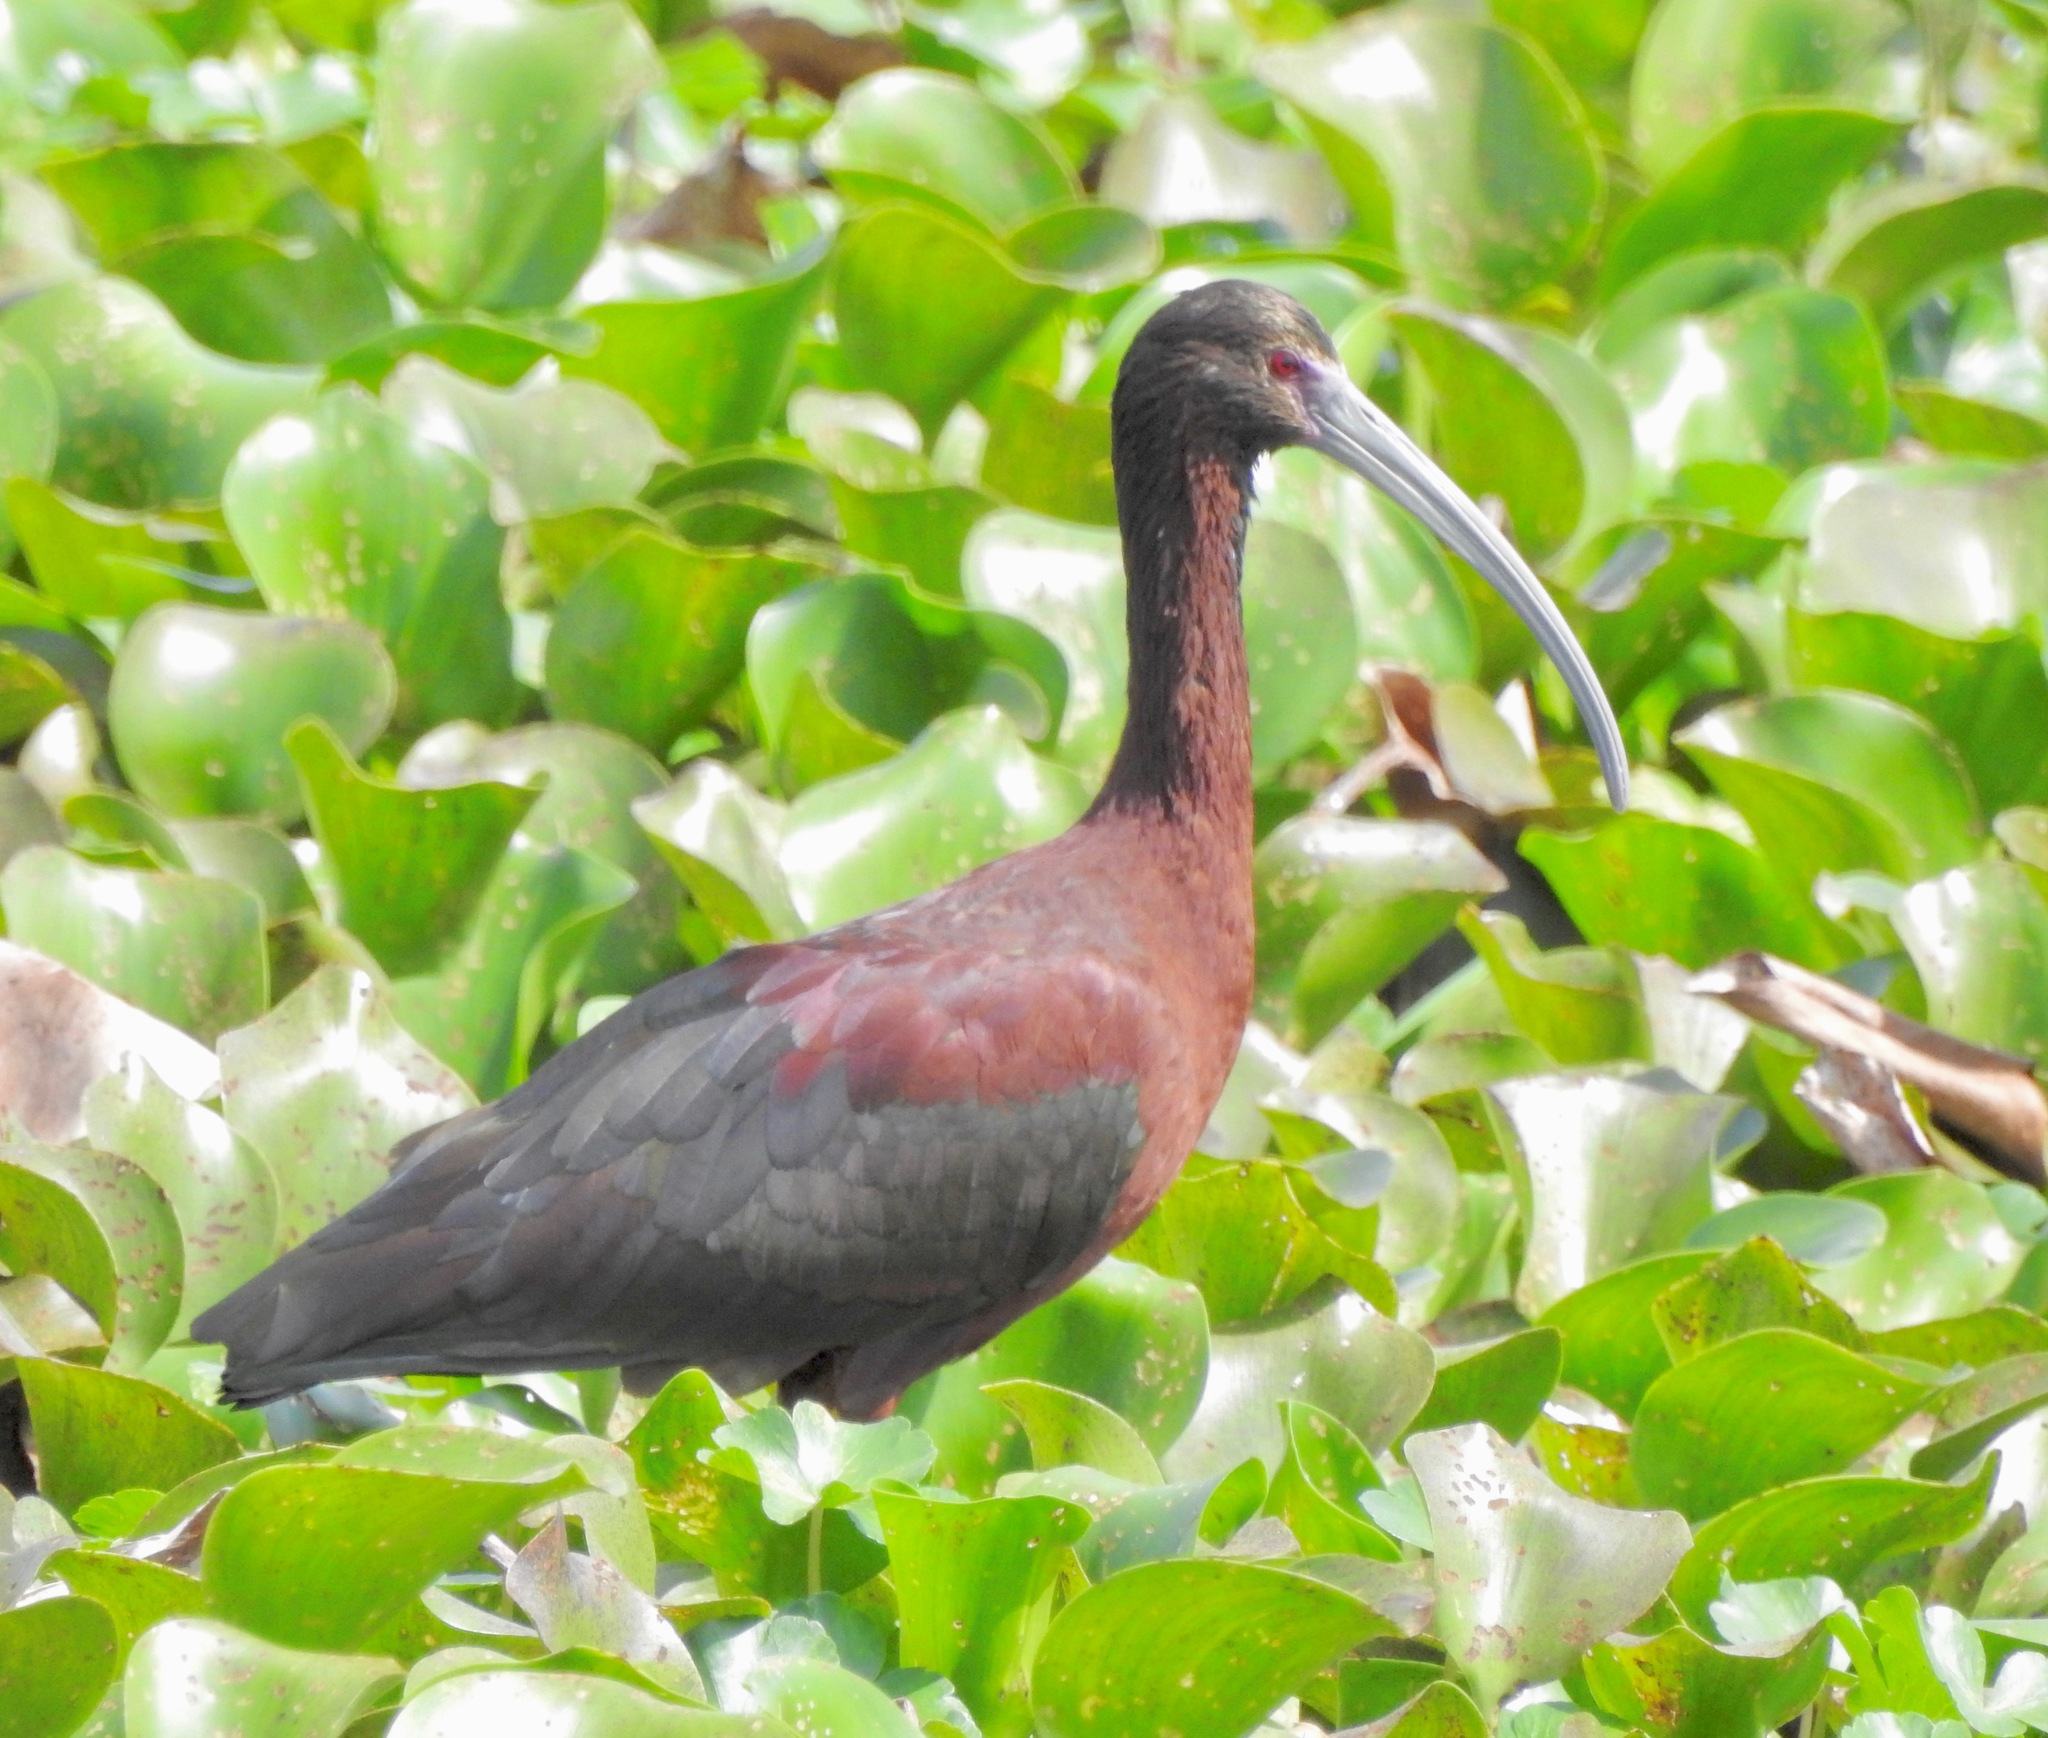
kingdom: Animalia
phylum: Chordata
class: Aves
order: Pelecaniformes
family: Threskiornithidae
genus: Plegadis
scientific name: Plegadis chihi
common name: White-faced ibis
